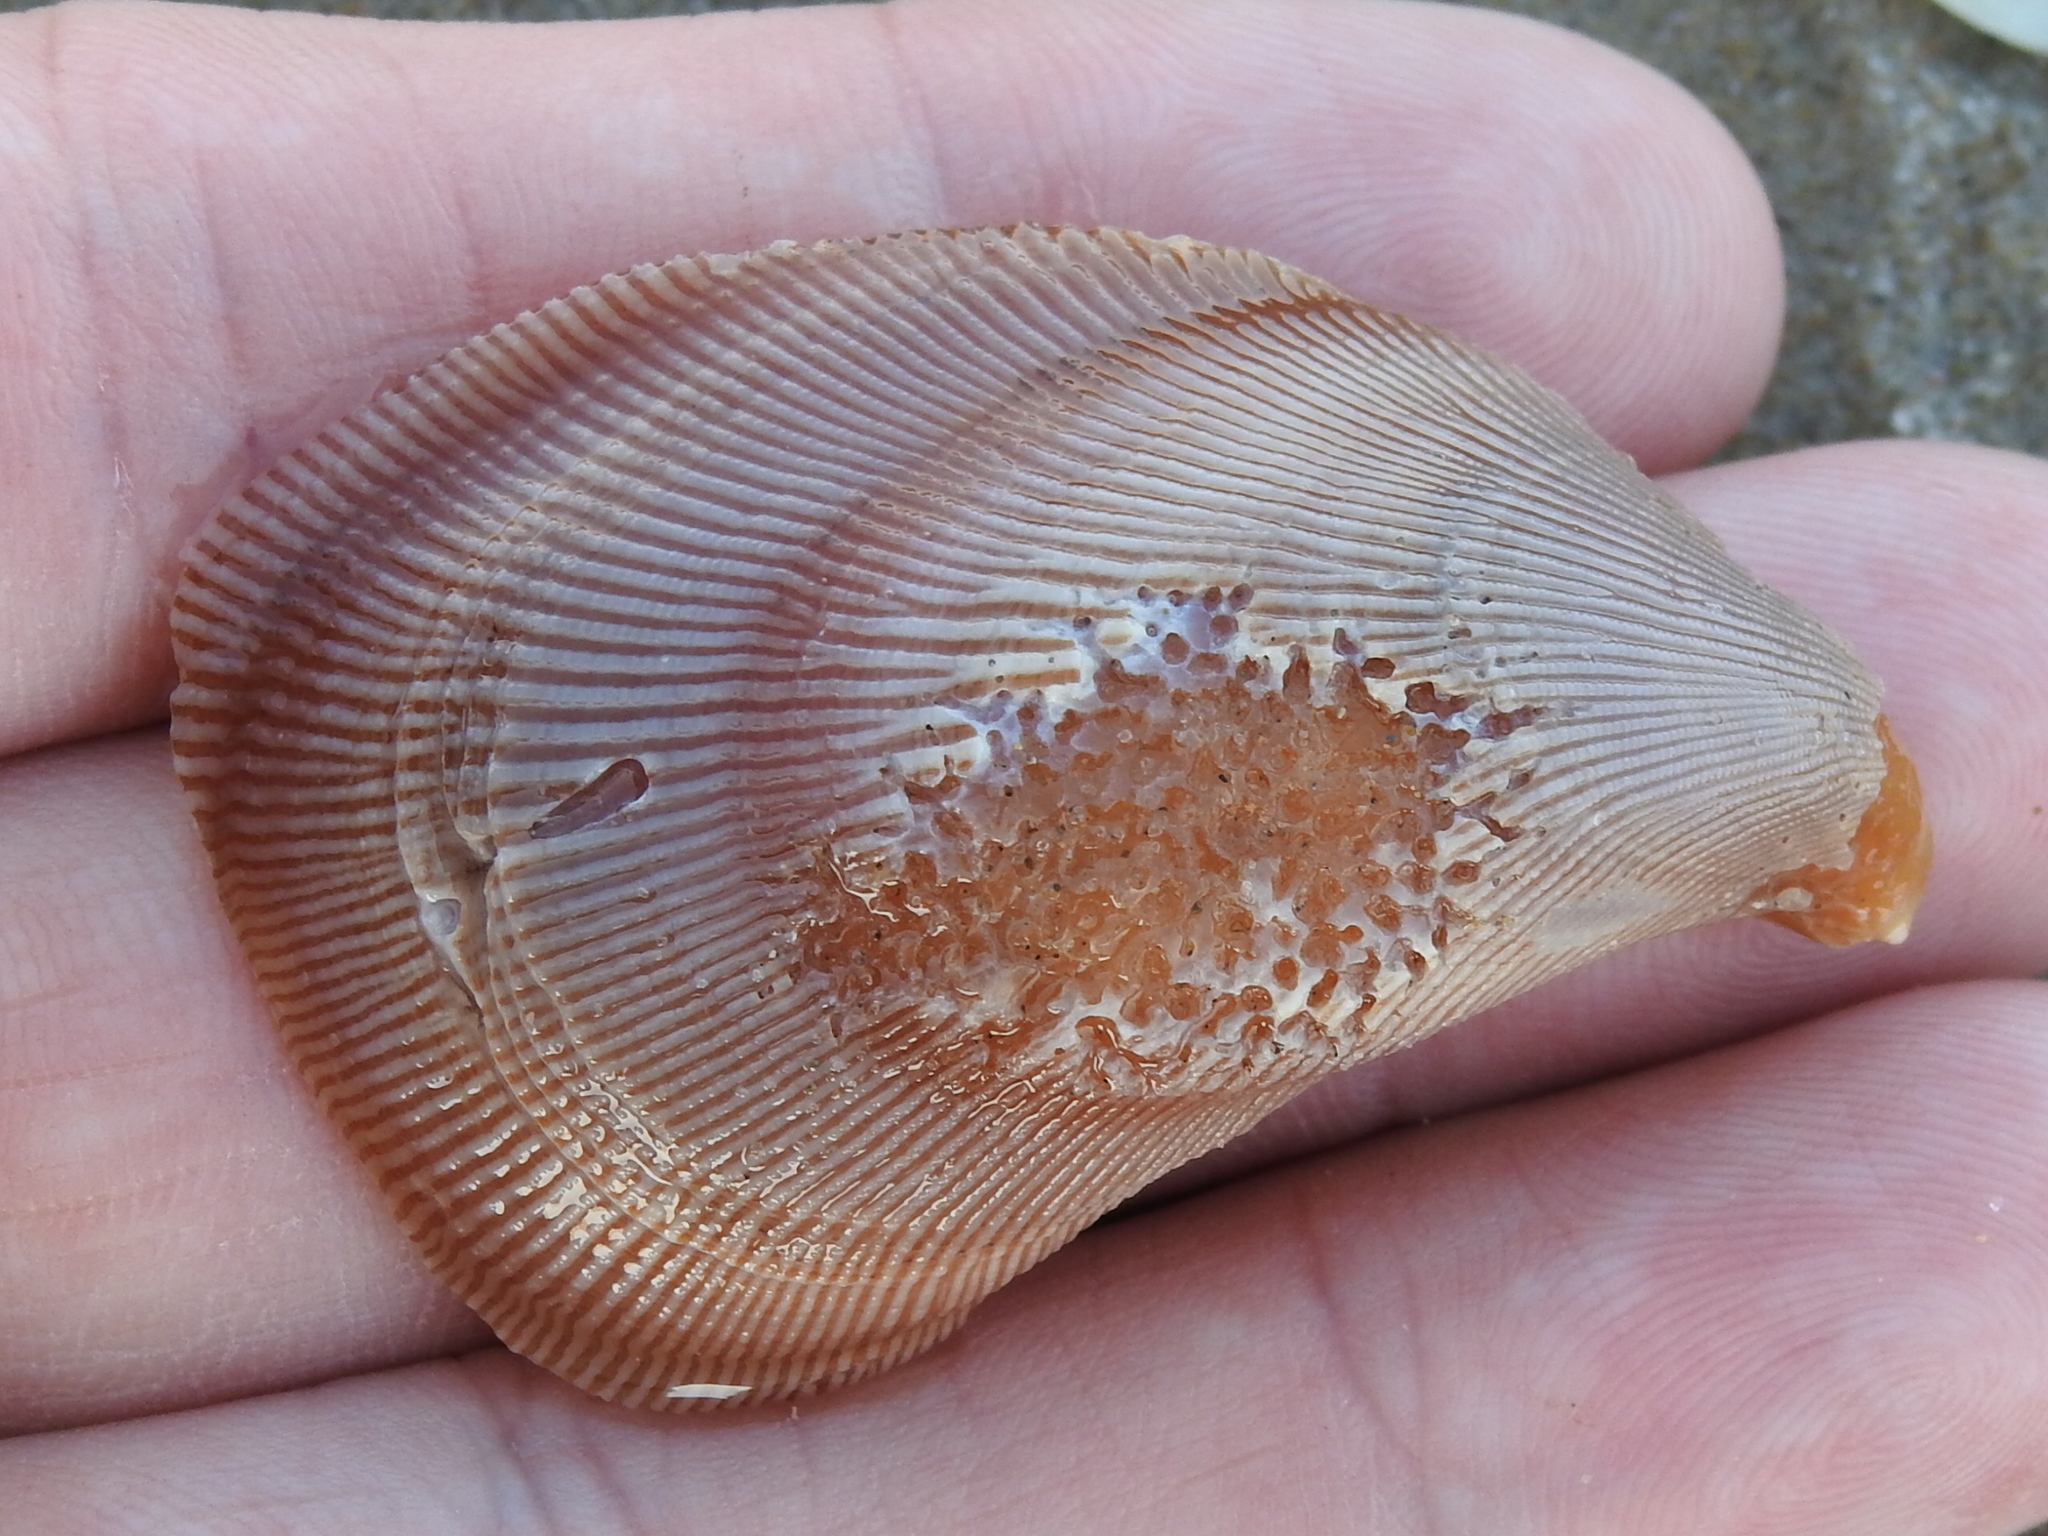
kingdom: Animalia
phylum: Mollusca
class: Bivalvia
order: Mytilida
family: Mytilidae
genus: Ischadium
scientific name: Ischadium recurvum
